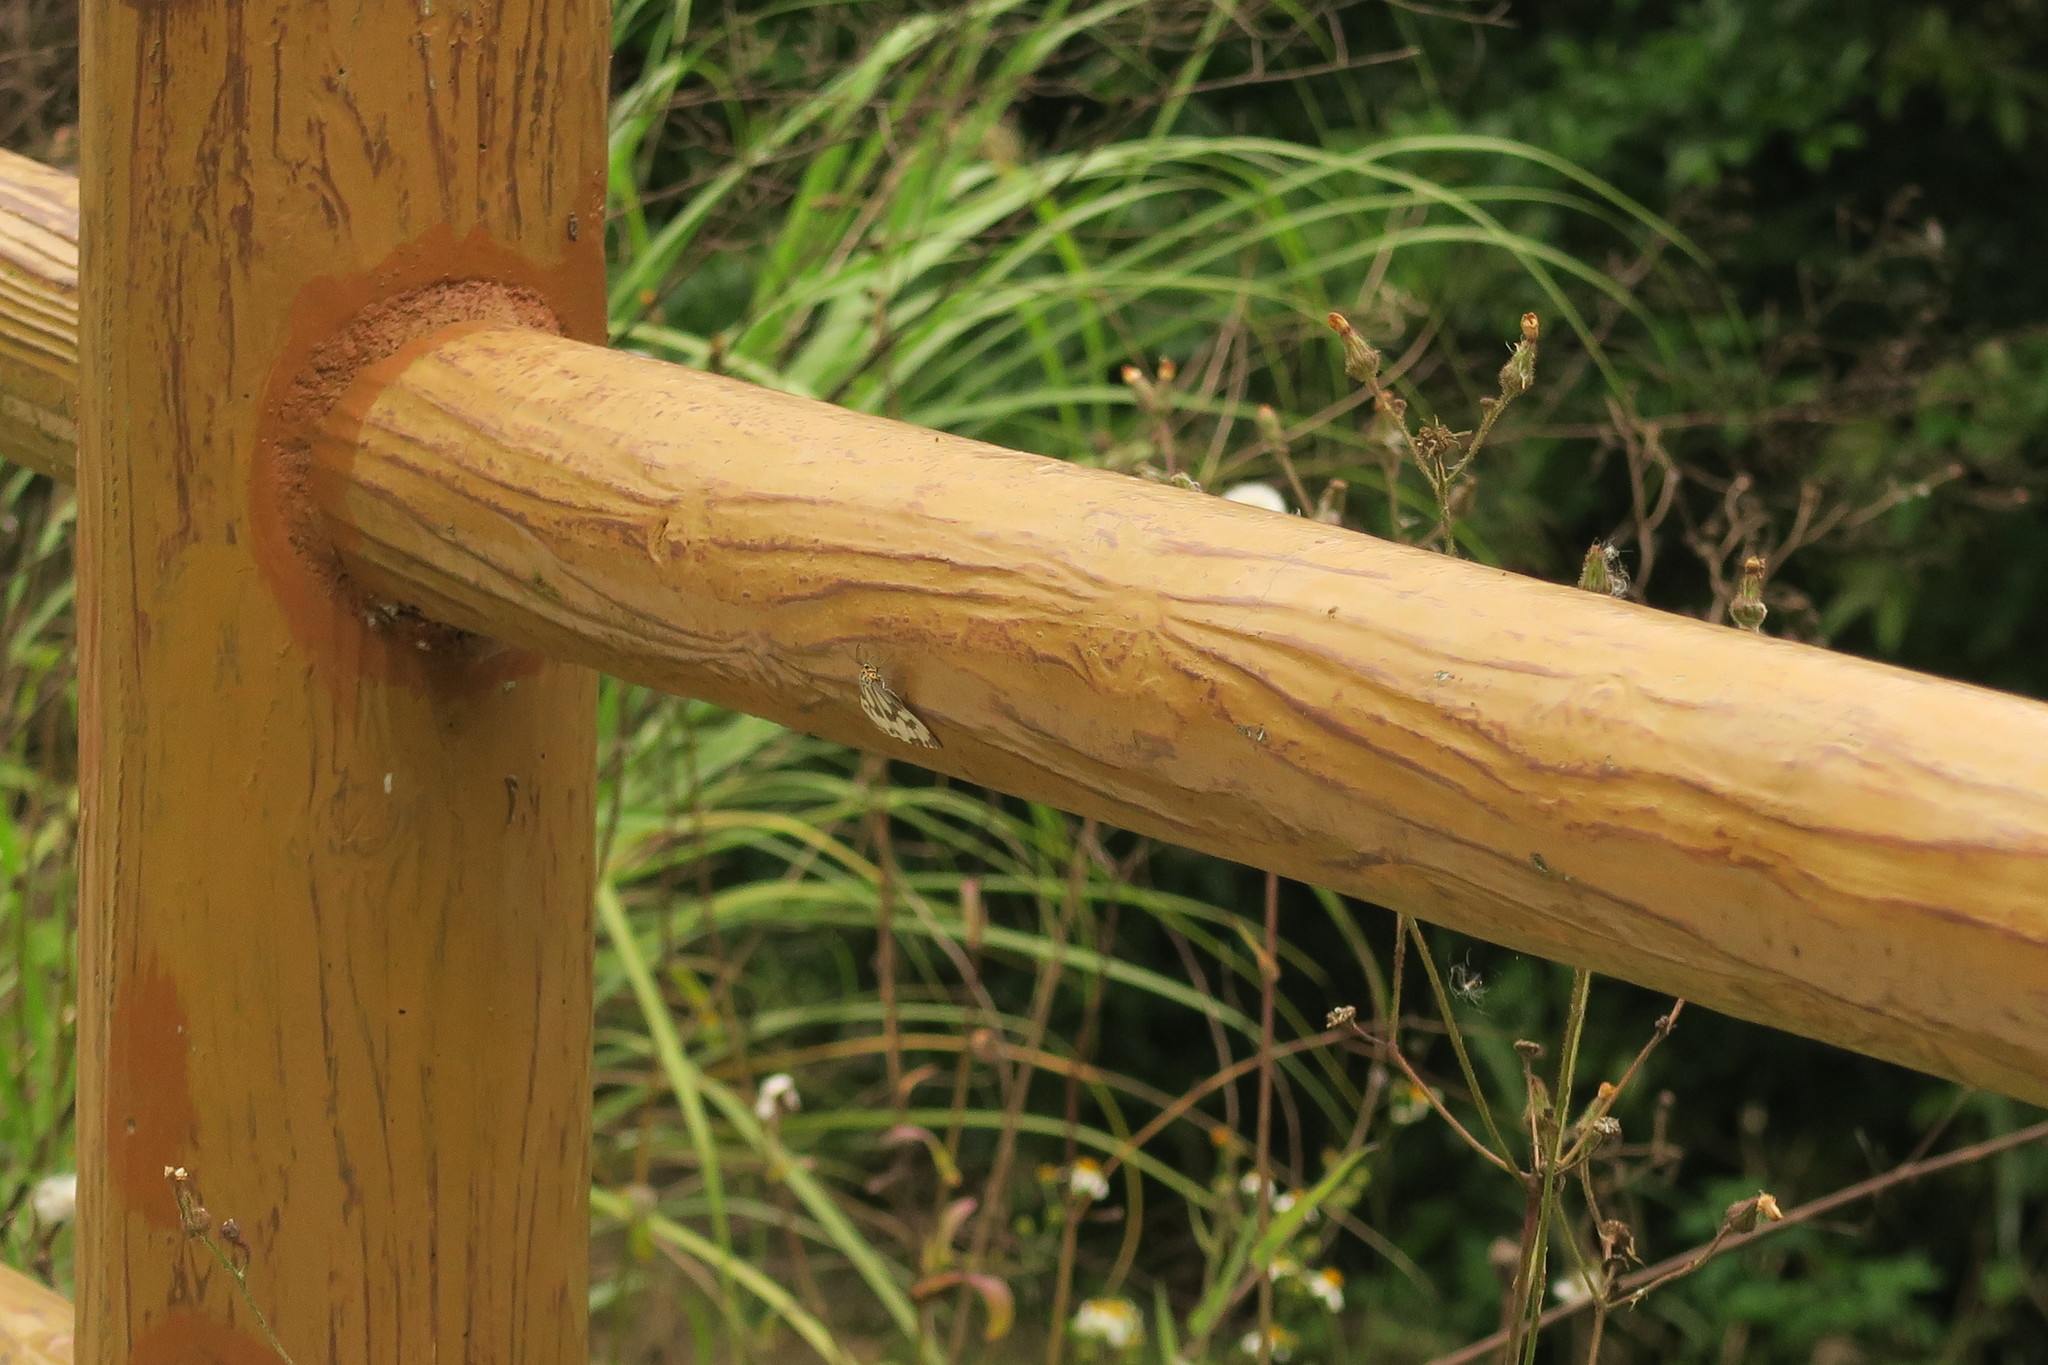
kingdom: Animalia
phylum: Arthropoda
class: Insecta
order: Lepidoptera
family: Erebidae
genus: Nyctemera
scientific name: Nyctemera adversata
